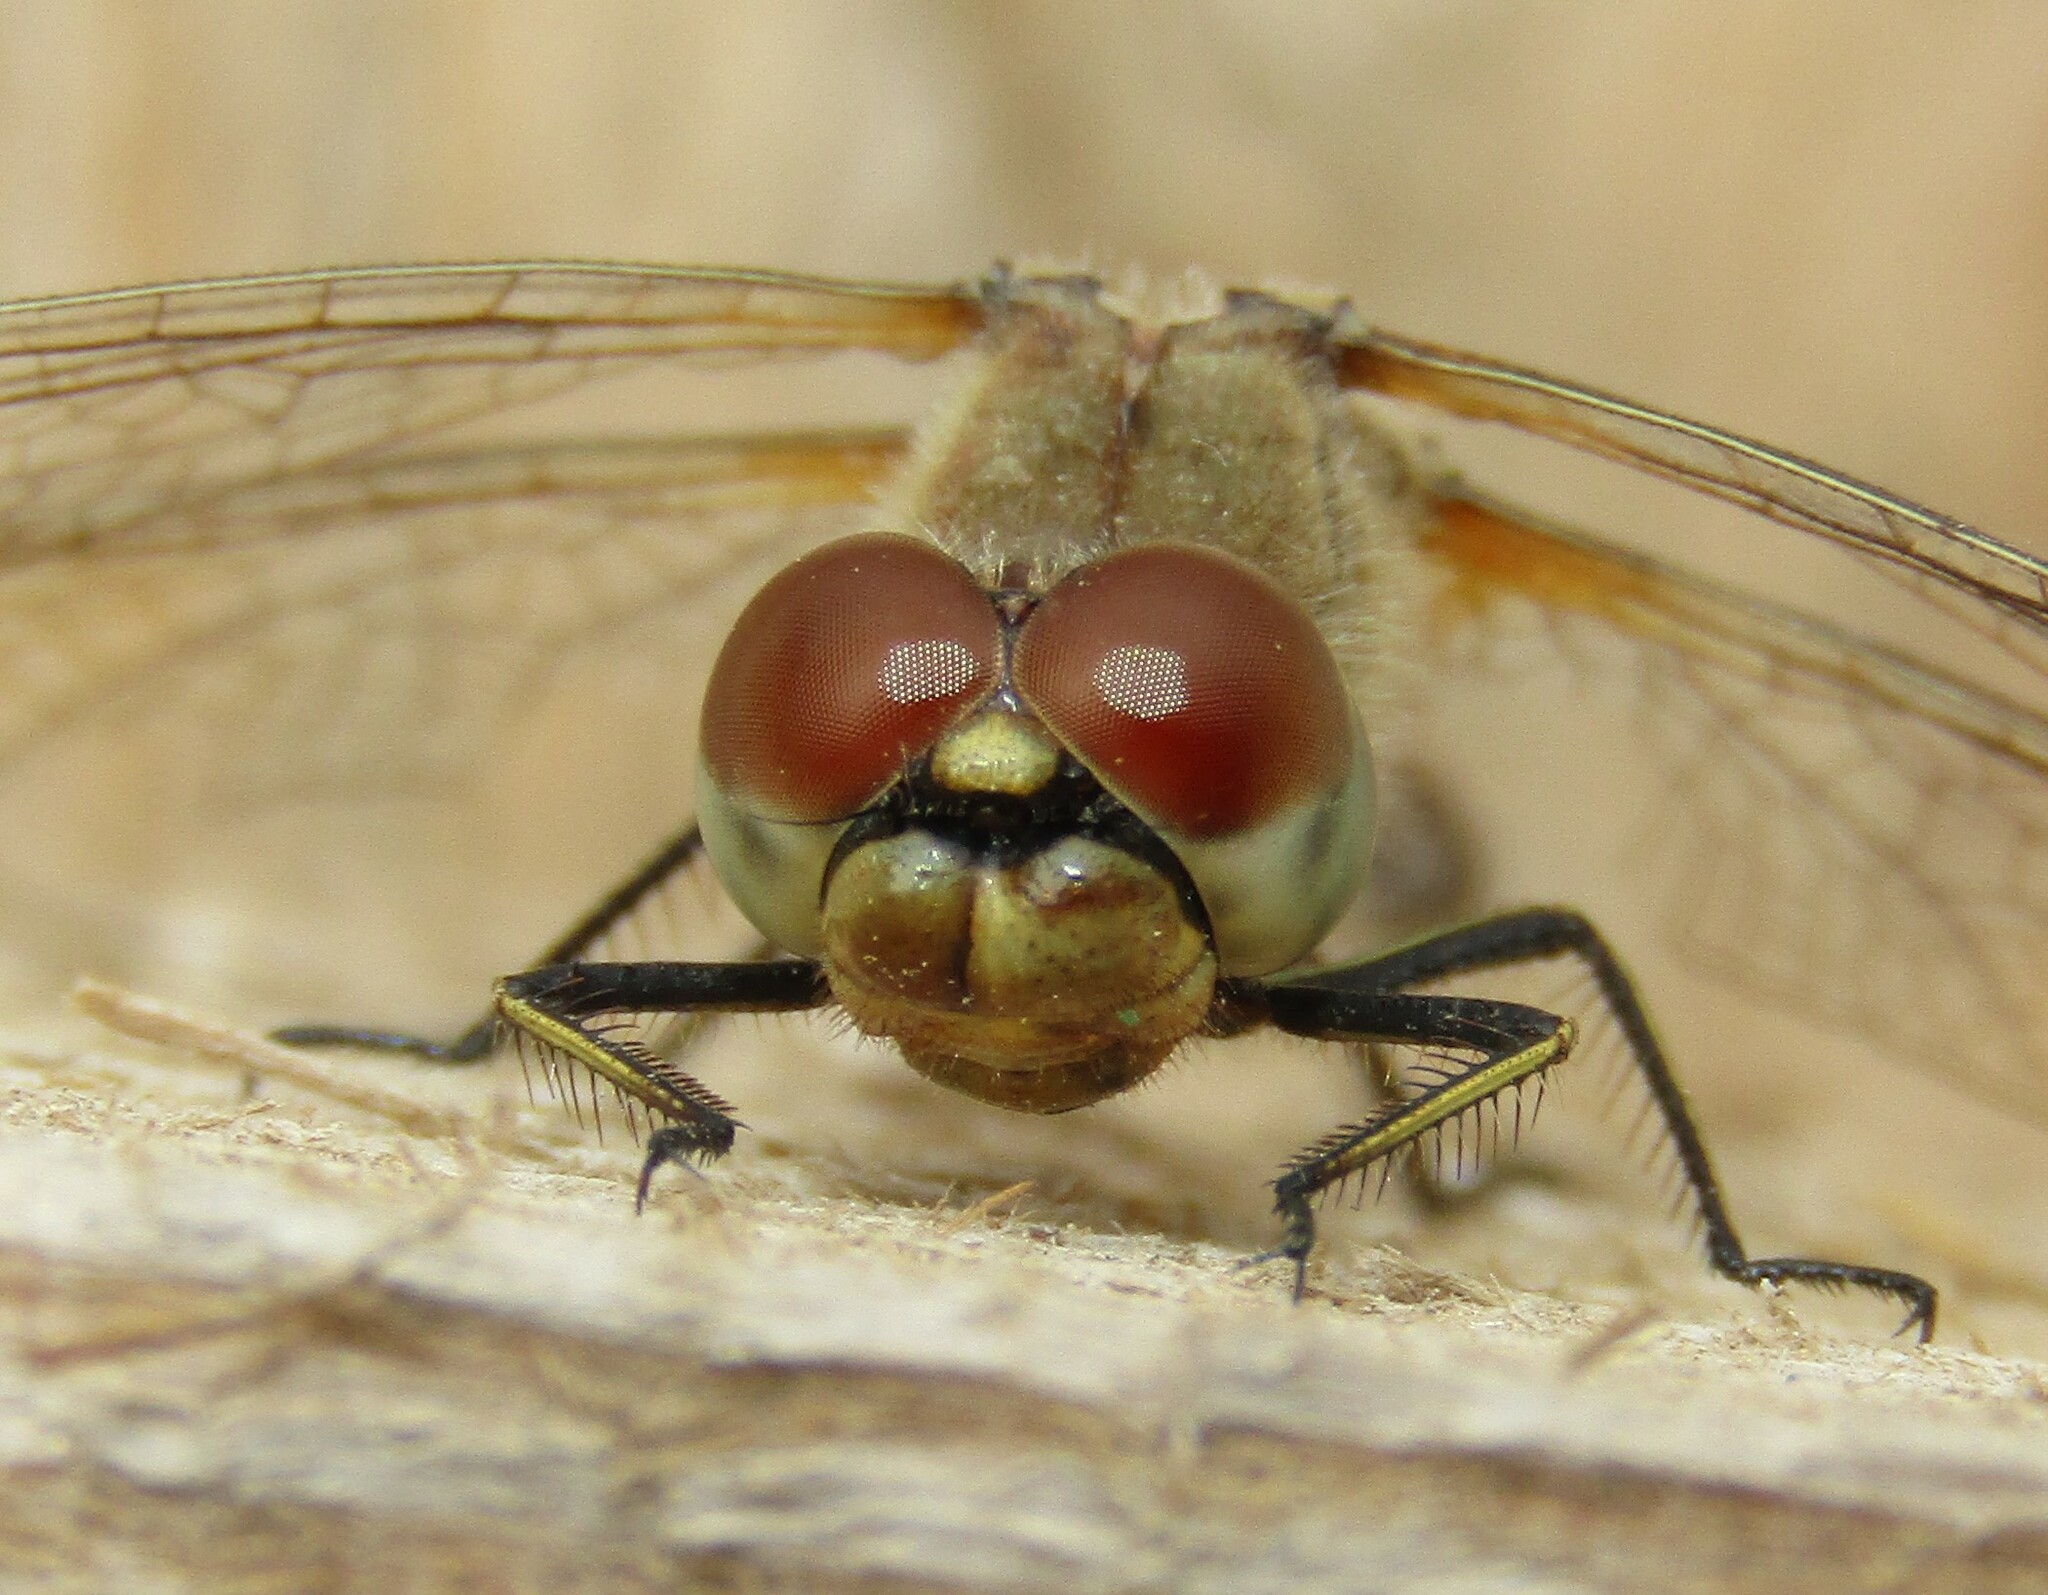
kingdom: Animalia
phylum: Arthropoda
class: Insecta
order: Odonata
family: Libellulidae
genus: Sympetrum
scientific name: Sympetrum flaveolum
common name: Yellow-winged darter
